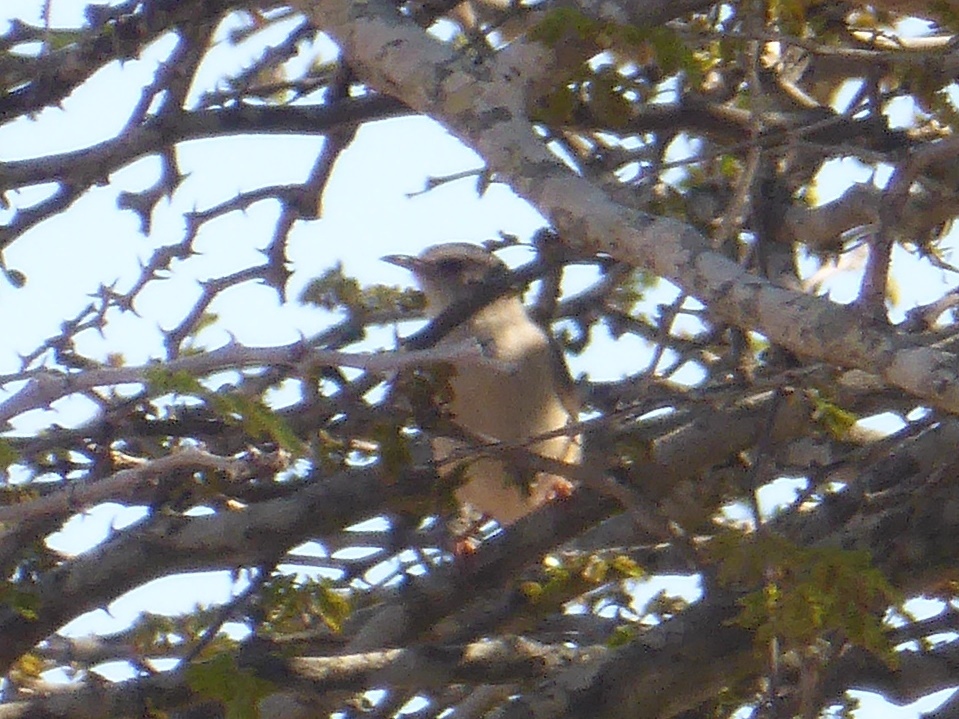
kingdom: Animalia
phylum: Chordata
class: Aves
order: Passeriformes
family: Macrosphenidae
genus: Sylvietta
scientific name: Sylvietta rufescens
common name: Long-billed crombec
